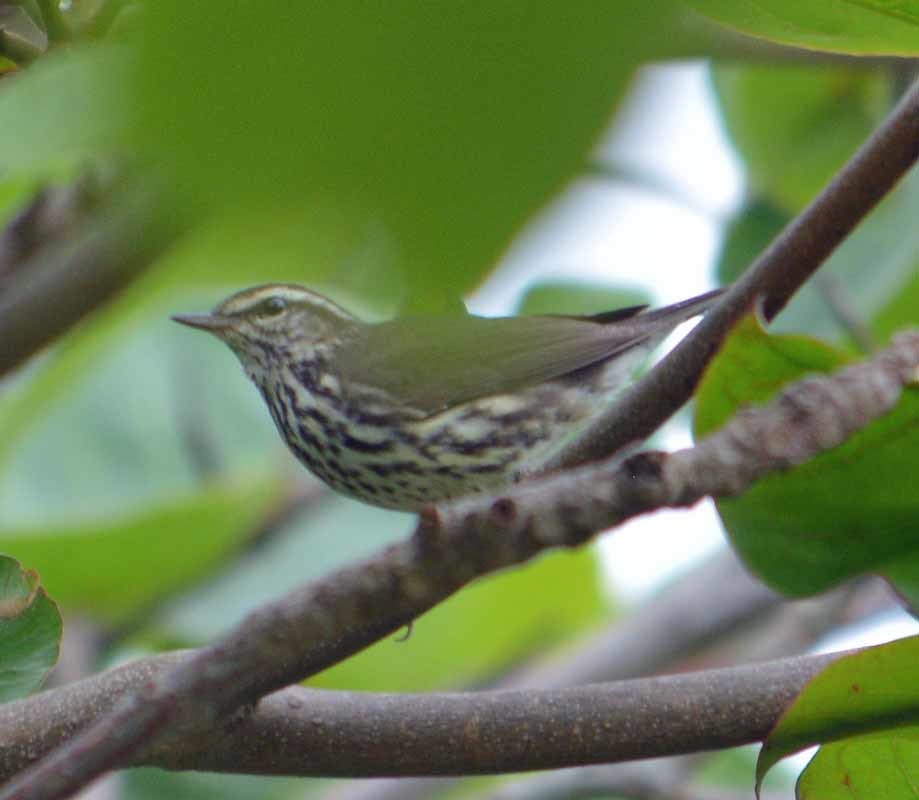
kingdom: Animalia
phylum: Chordata
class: Aves
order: Passeriformes
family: Parulidae
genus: Parkesia
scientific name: Parkesia noveboracensis
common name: Northern waterthrush
